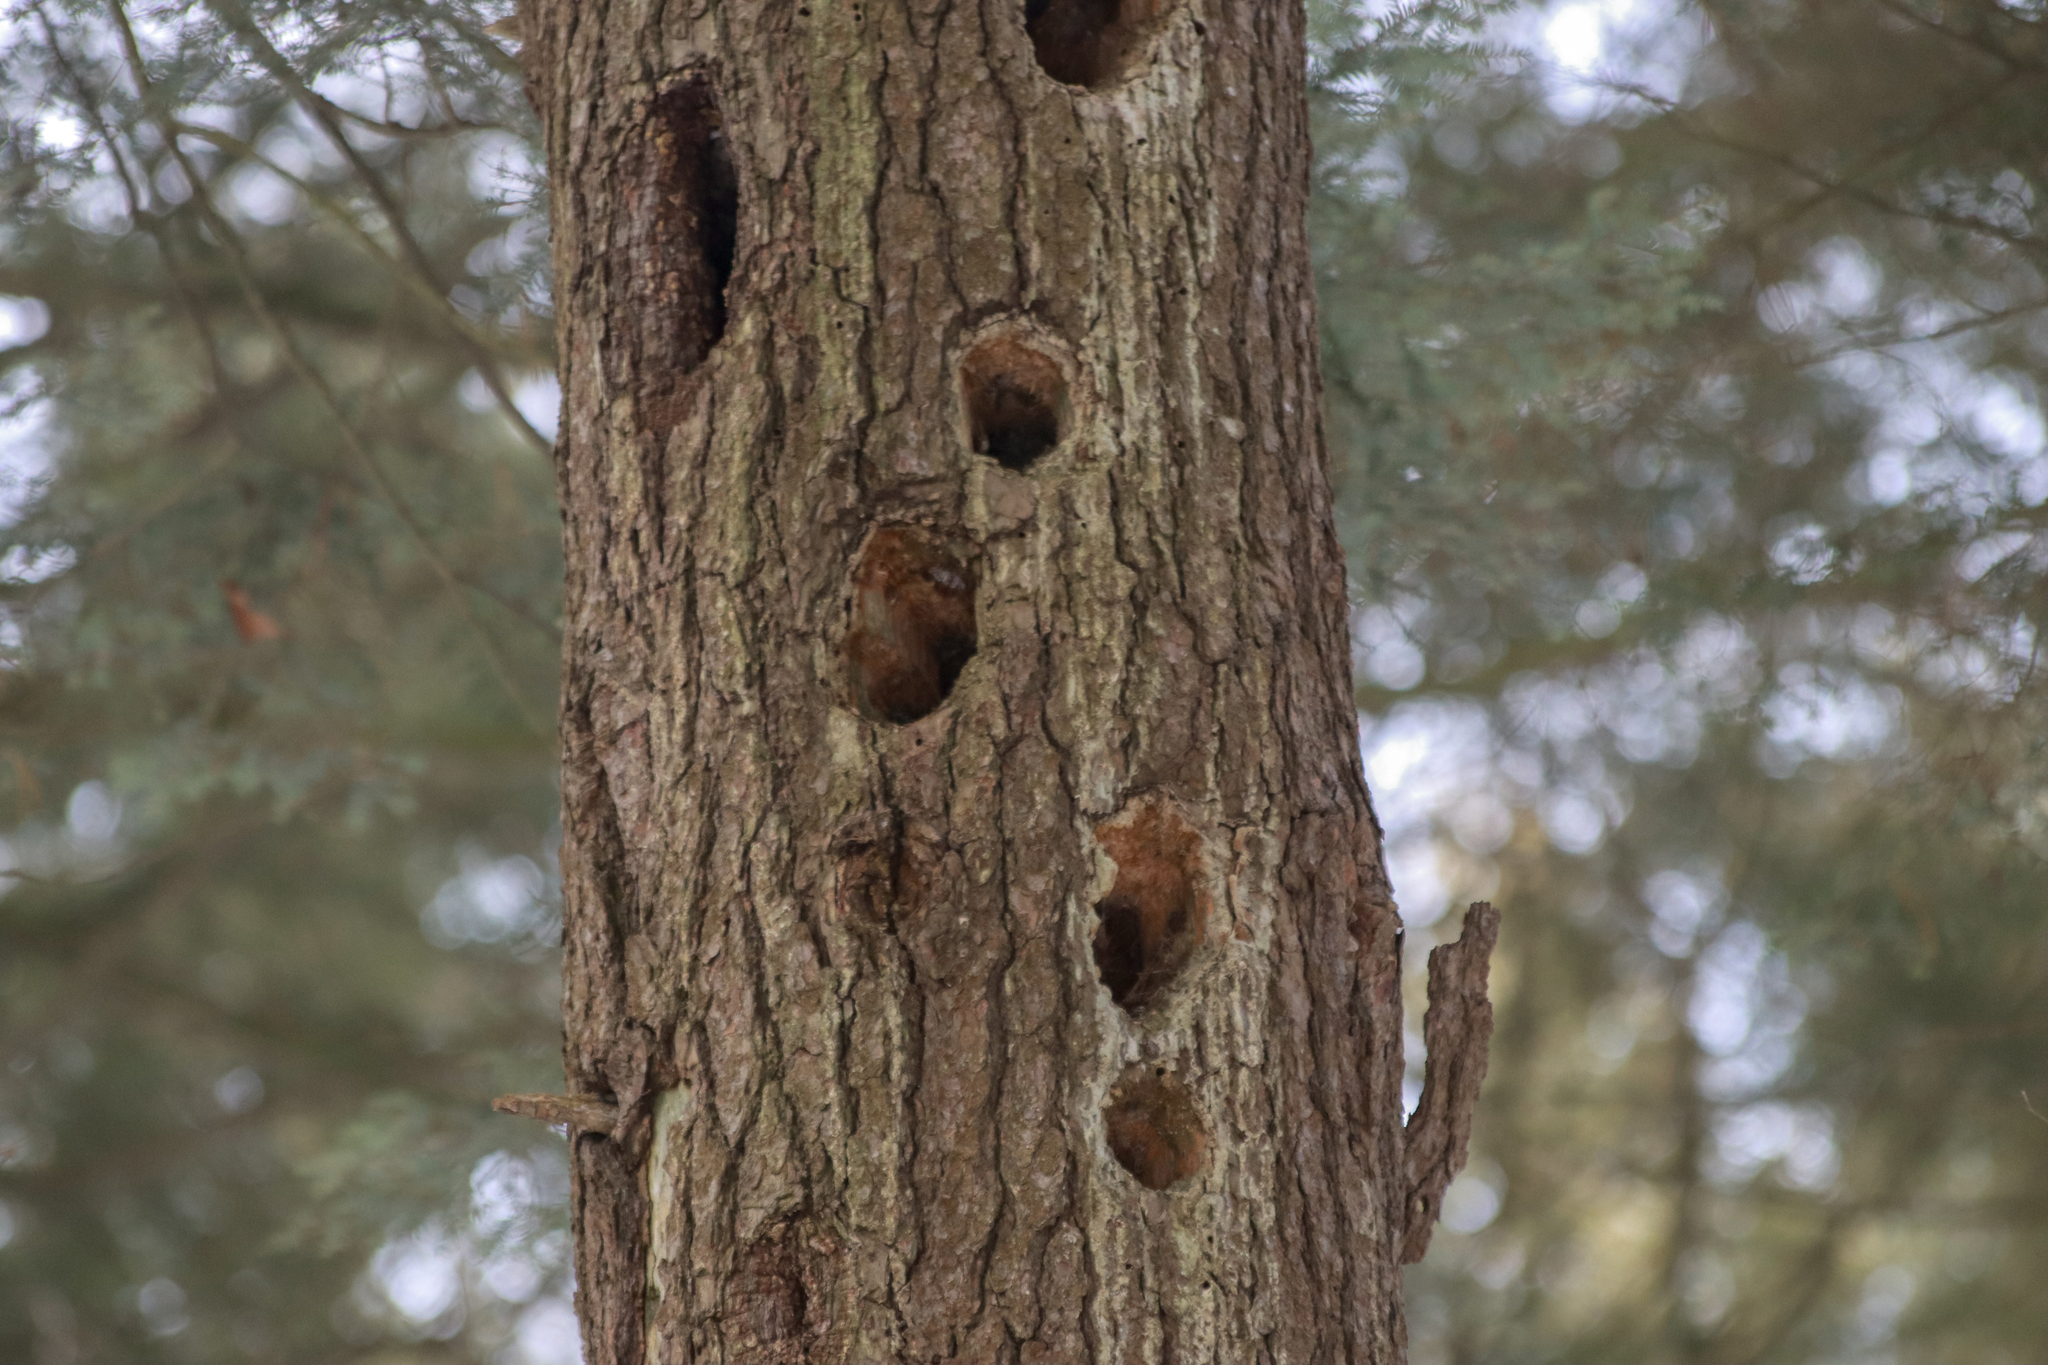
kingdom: Animalia
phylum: Chordata
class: Aves
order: Piciformes
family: Picidae
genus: Dryocopus
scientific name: Dryocopus pileatus
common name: Pileated woodpecker
